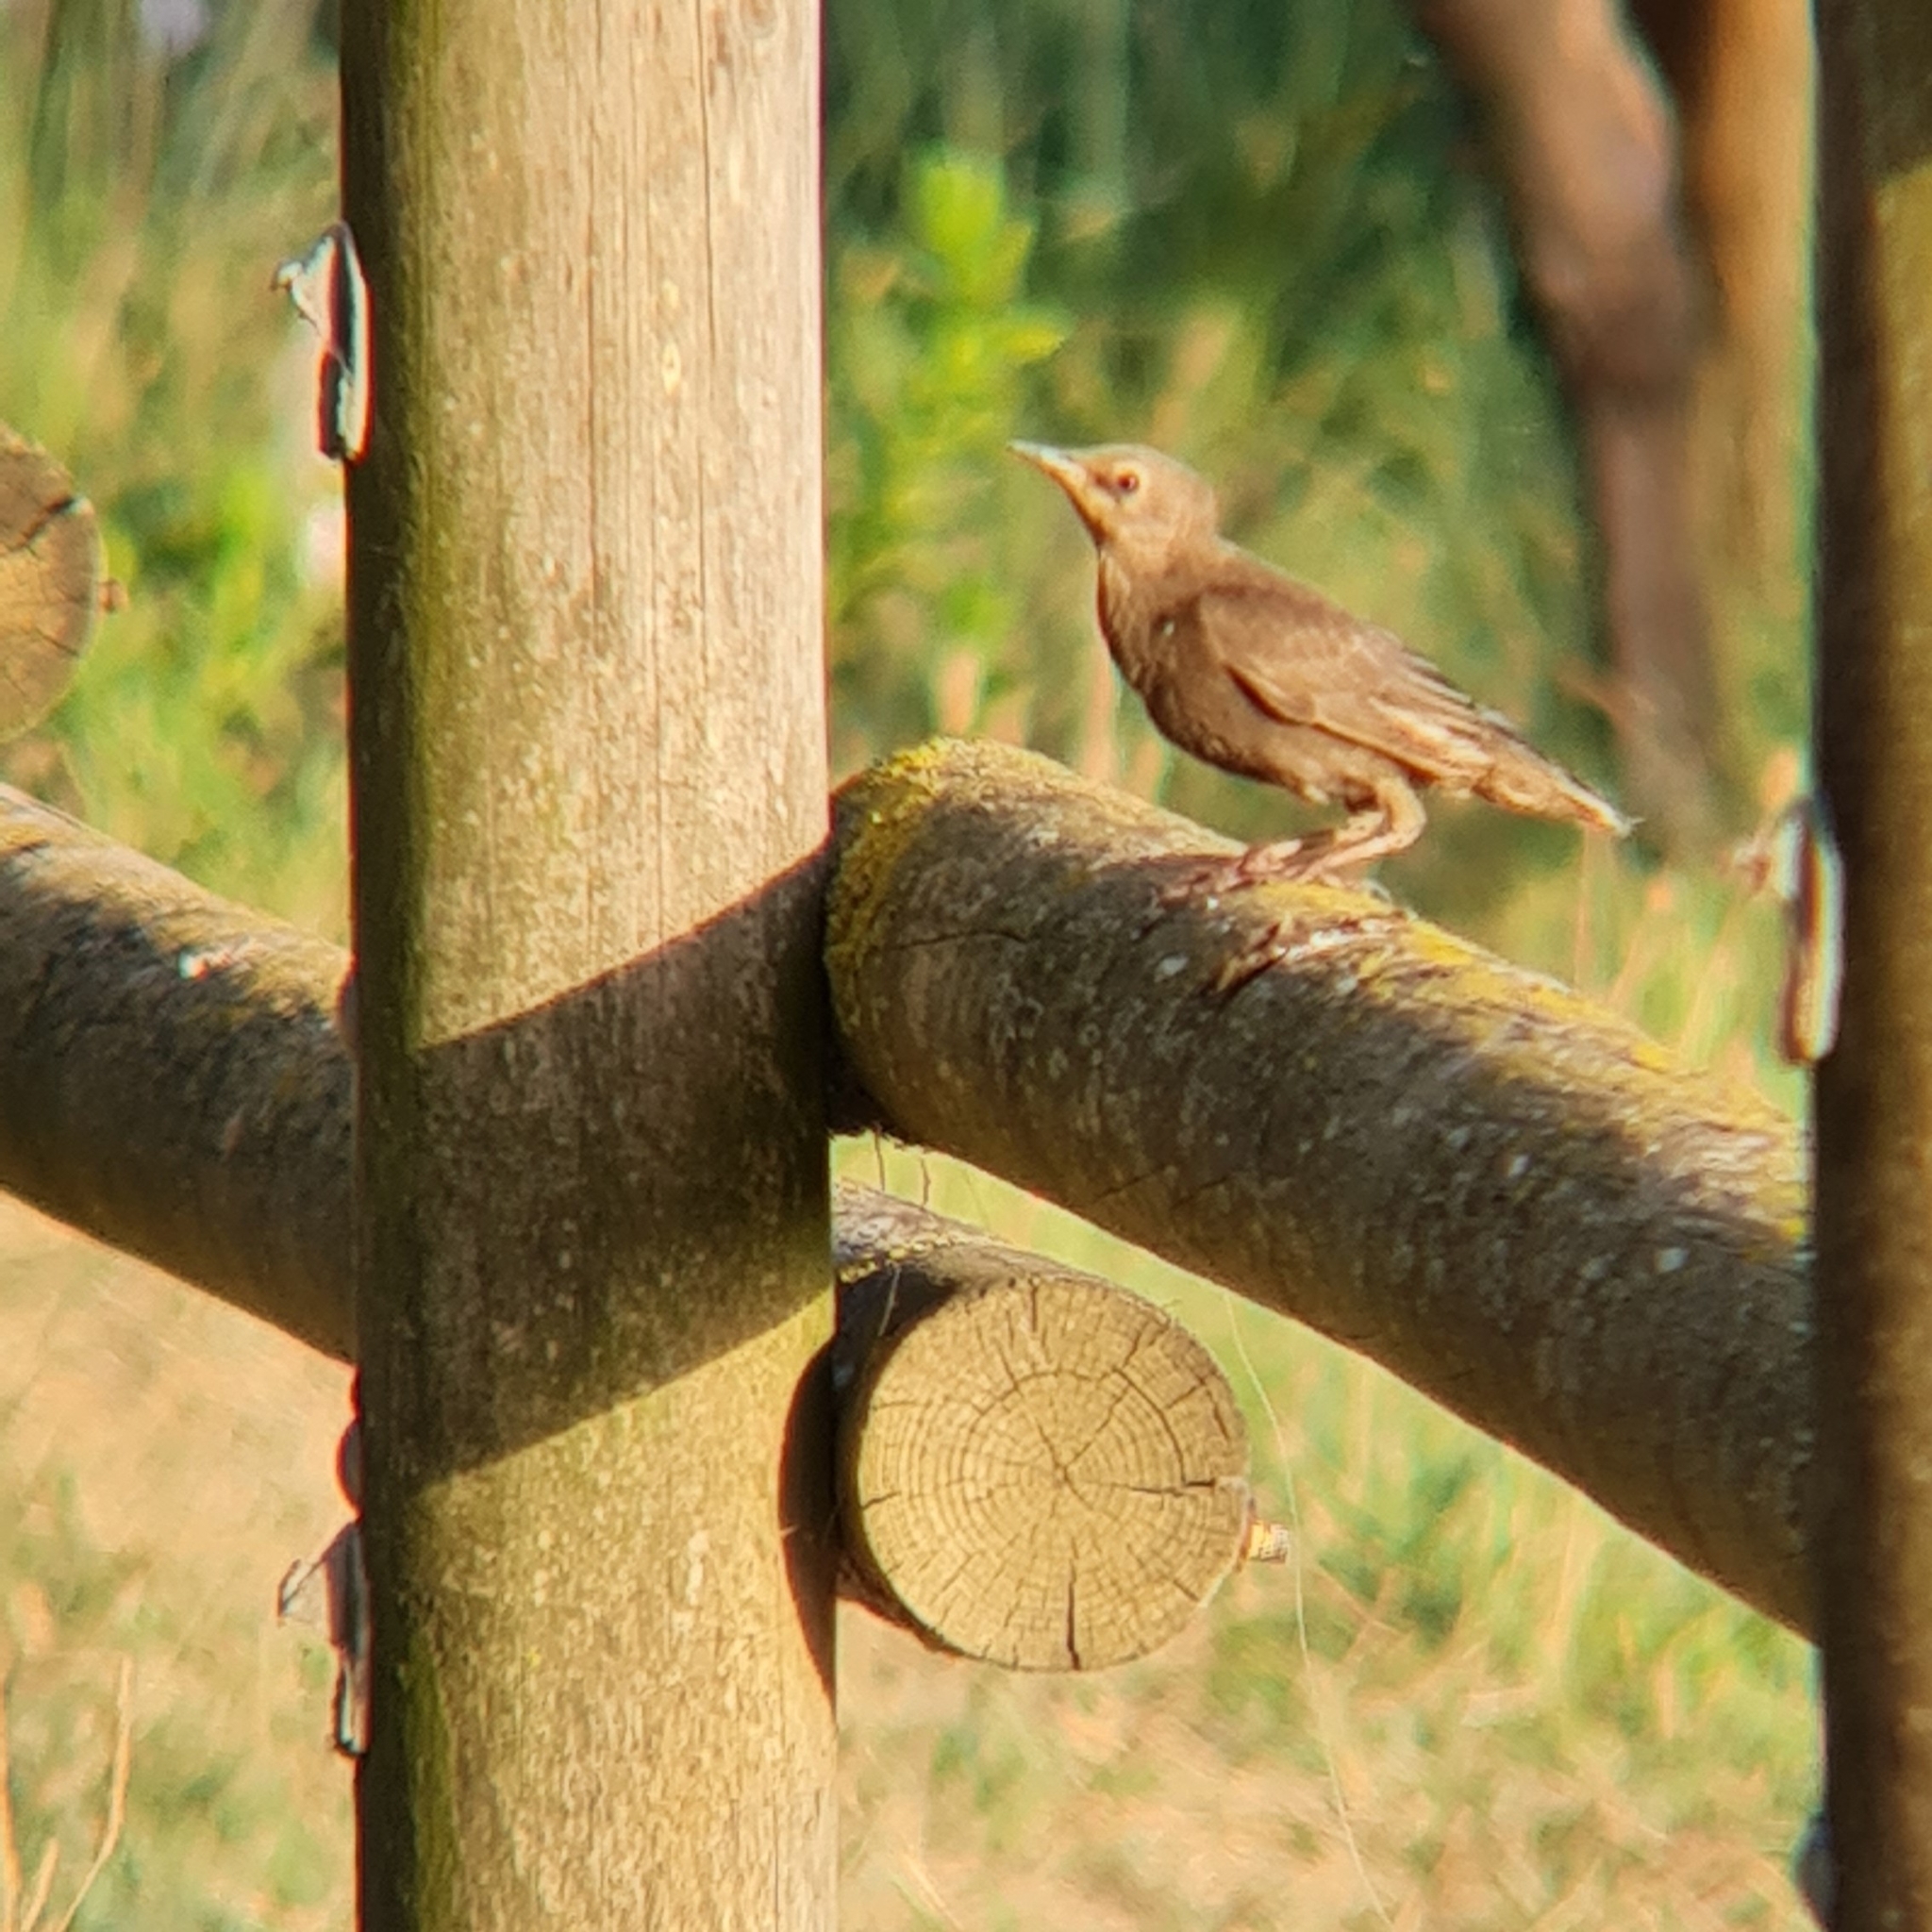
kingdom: Animalia
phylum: Chordata
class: Aves
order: Passeriformes
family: Sturnidae
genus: Sturnus
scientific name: Sturnus
